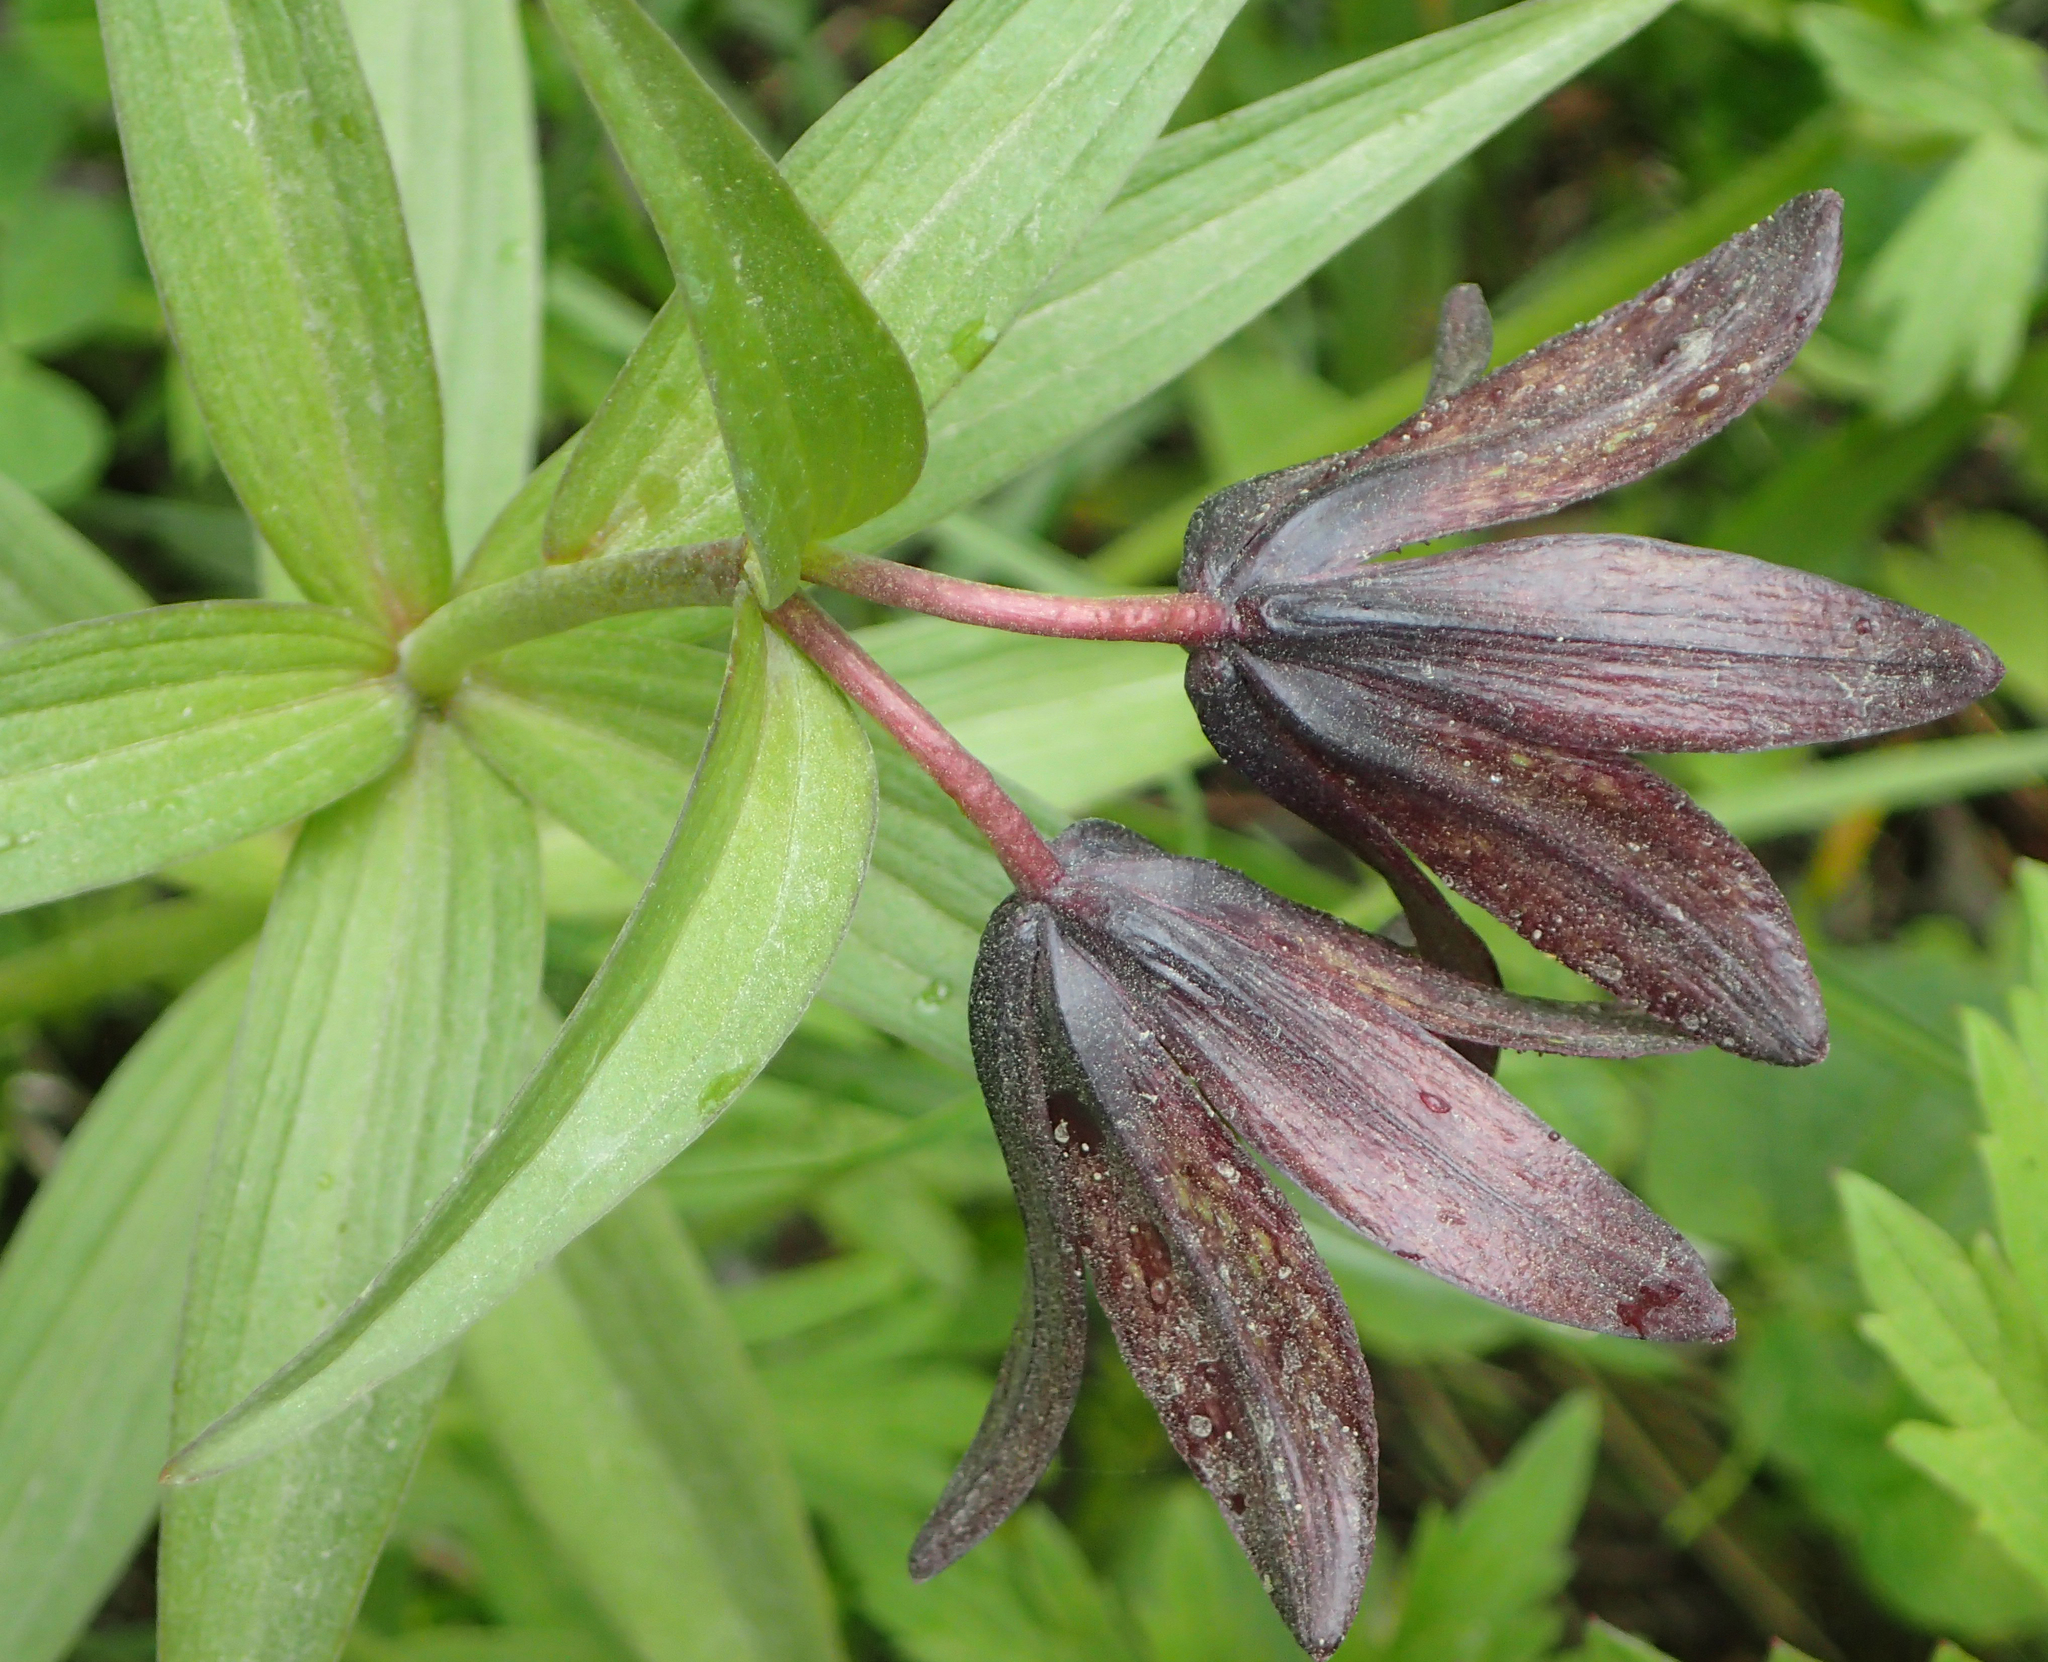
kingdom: Plantae
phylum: Tracheophyta
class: Liliopsida
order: Liliales
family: Liliaceae
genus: Fritillaria
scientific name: Fritillaria camschatcensis
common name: Kamchatka fritillary
